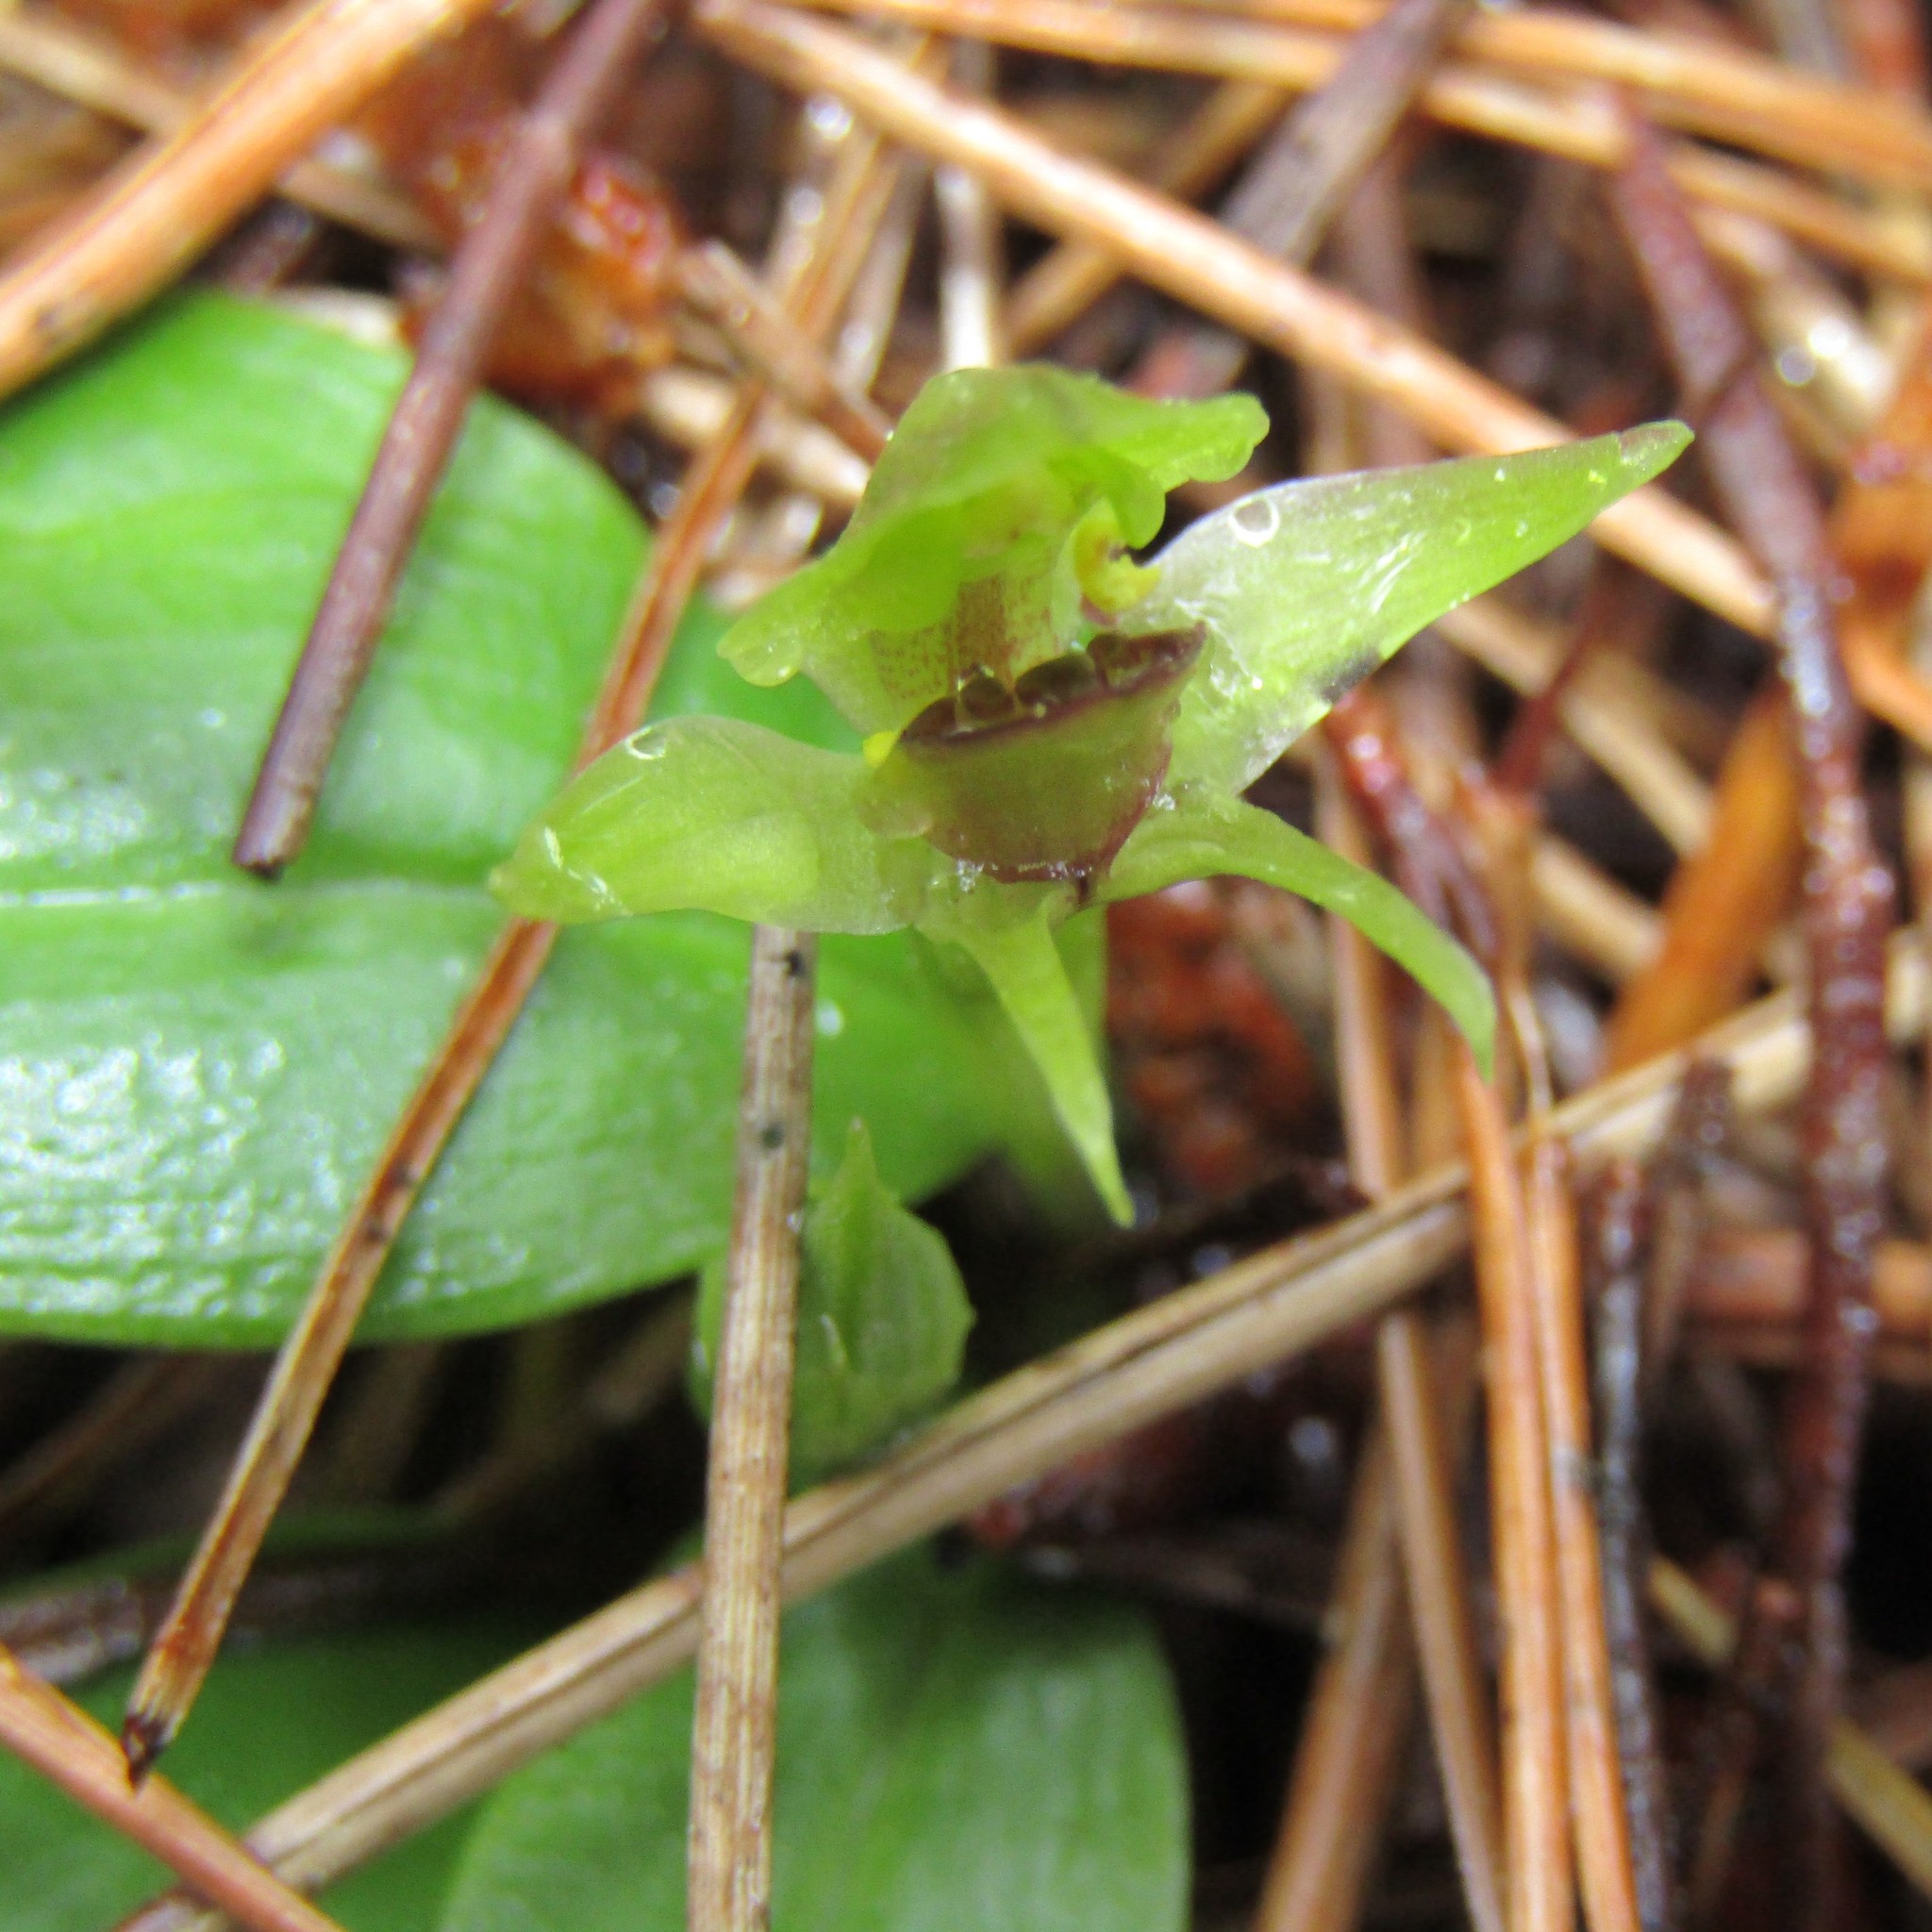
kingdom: Plantae
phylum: Tracheophyta
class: Liliopsida
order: Asparagales
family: Orchidaceae
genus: Chiloglottis
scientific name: Chiloglottis cornuta
